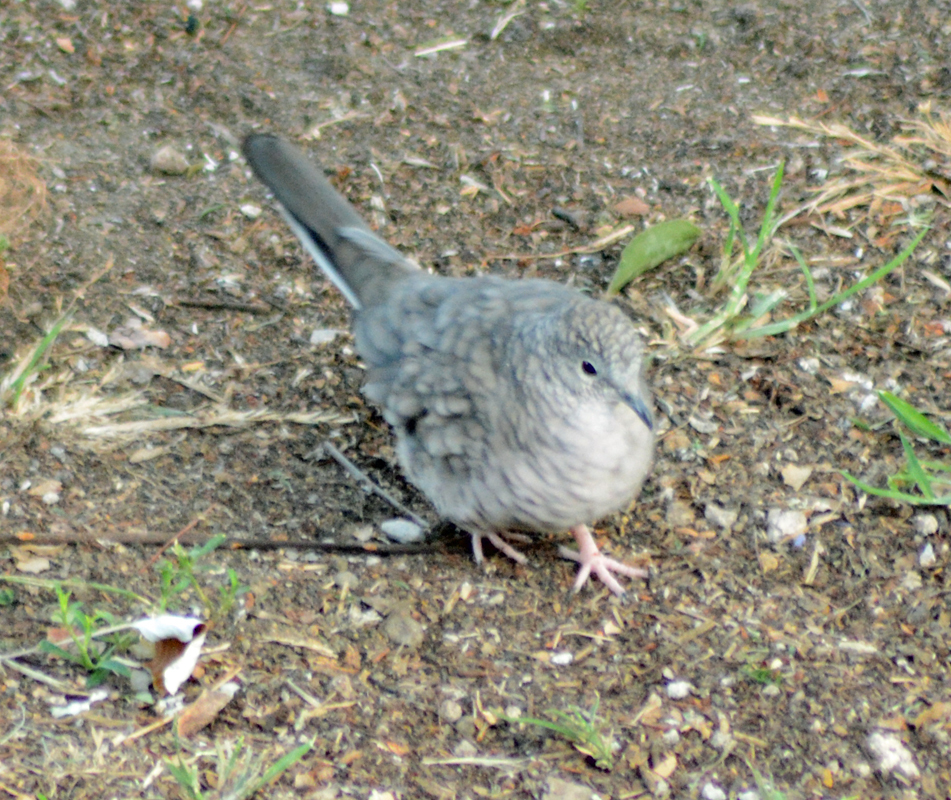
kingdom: Animalia
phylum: Chordata
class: Aves
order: Columbiformes
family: Columbidae
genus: Columbina
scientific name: Columbina inca
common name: Inca dove
